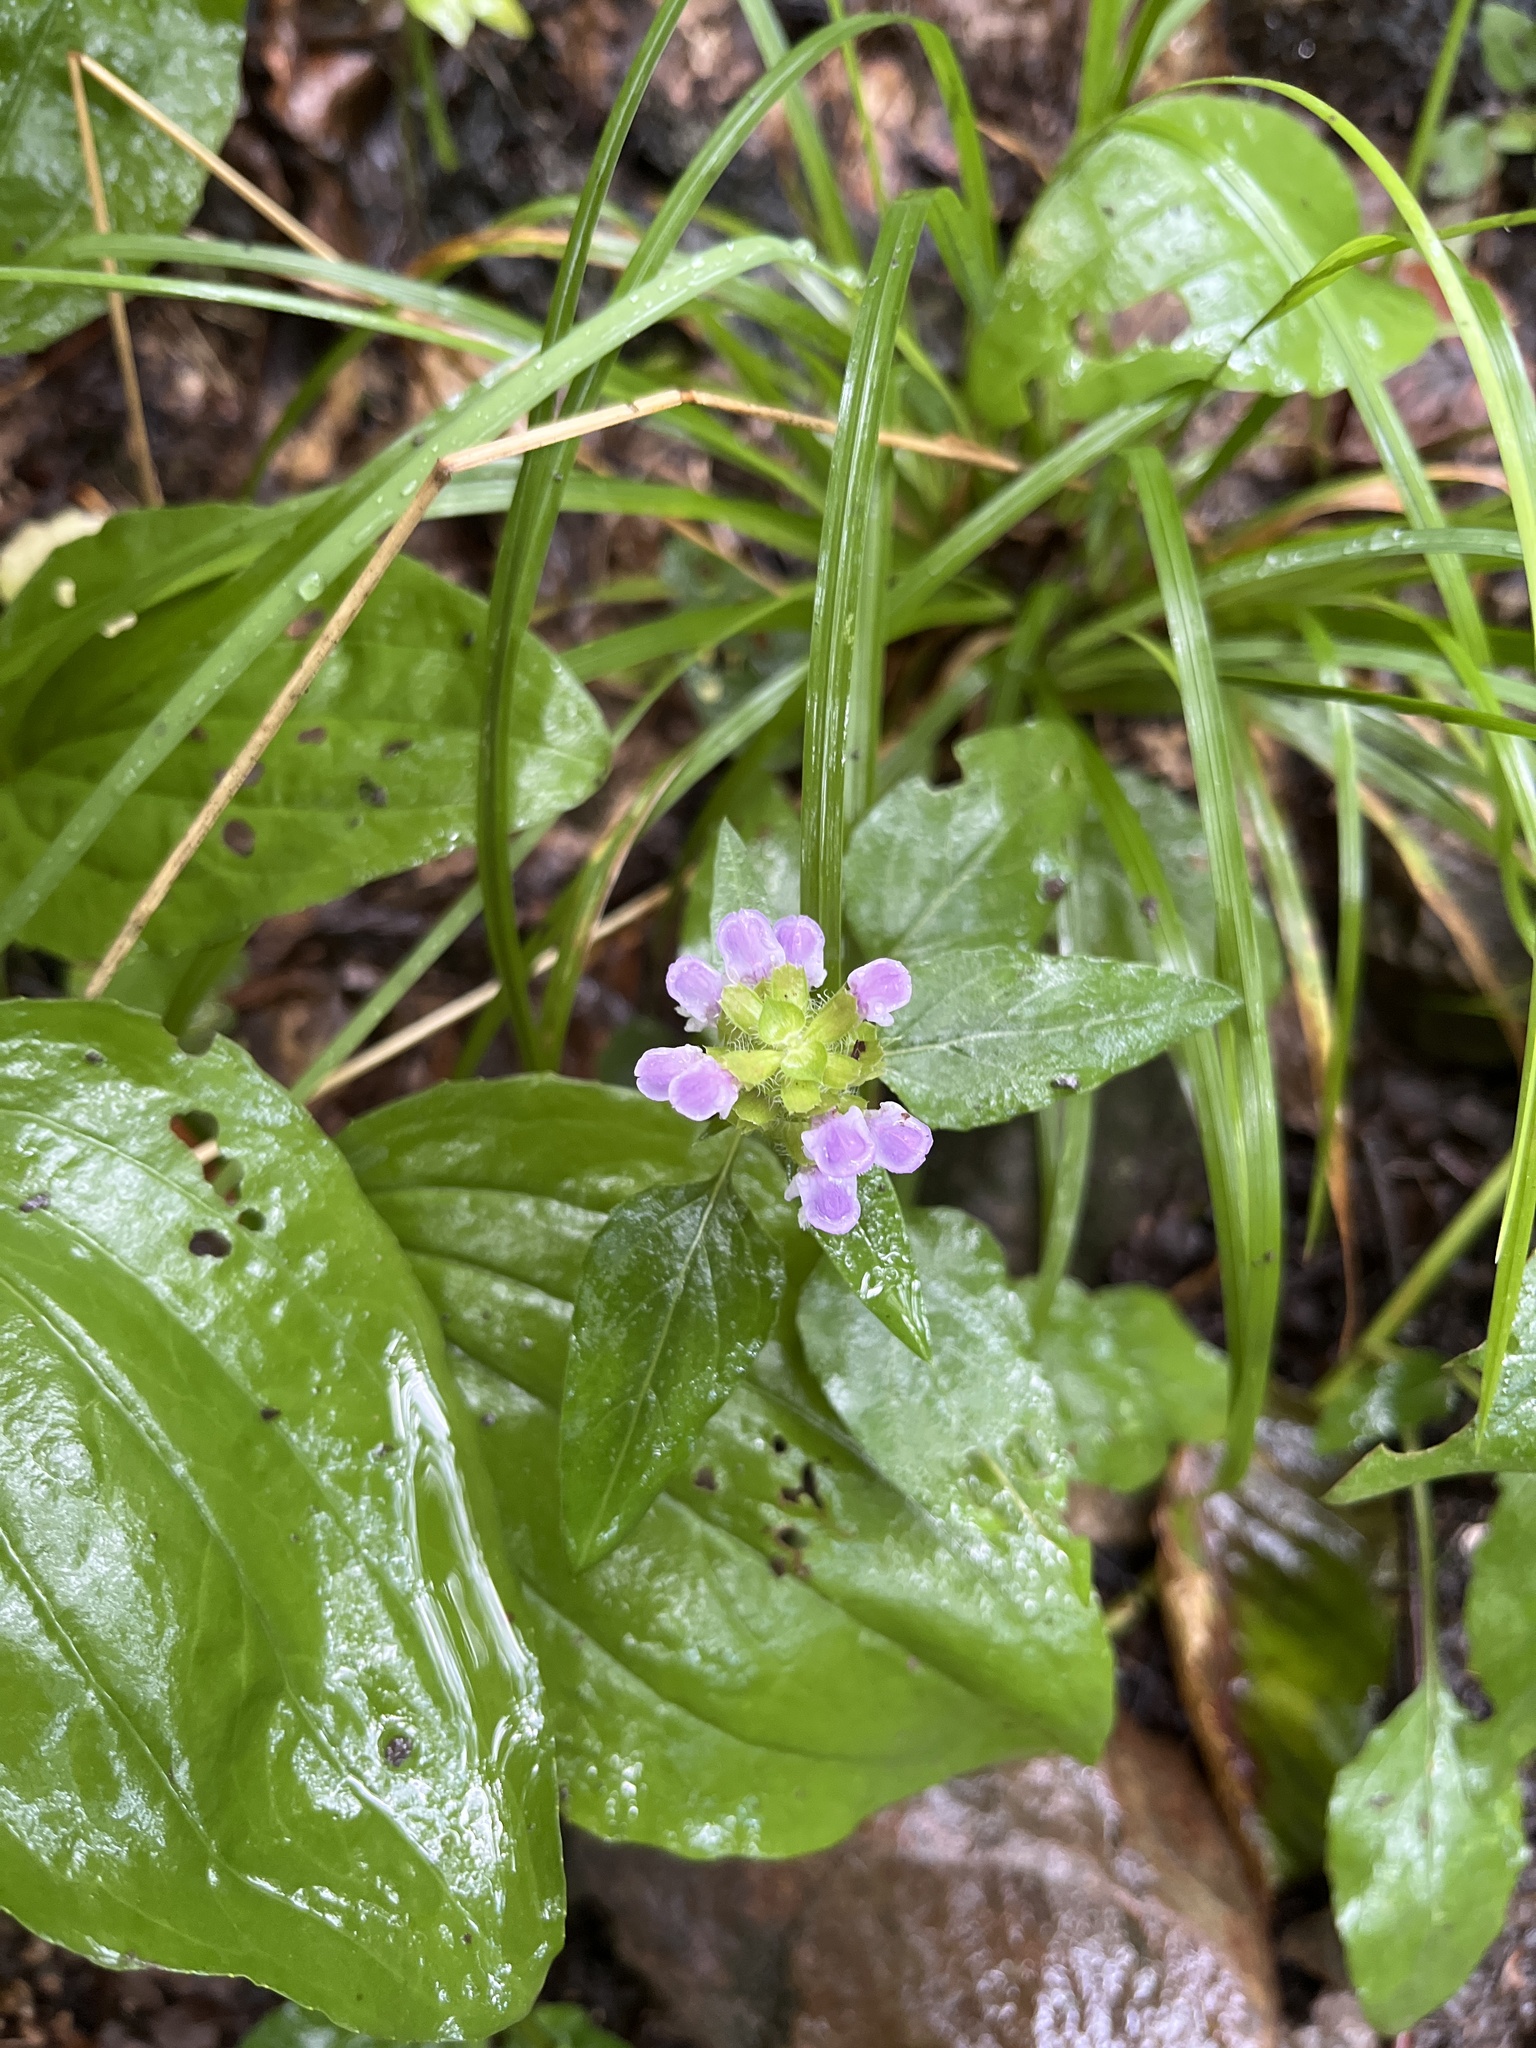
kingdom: Plantae
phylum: Tracheophyta
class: Magnoliopsida
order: Lamiales
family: Lamiaceae
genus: Prunella
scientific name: Prunella vulgaris
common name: Heal-all
